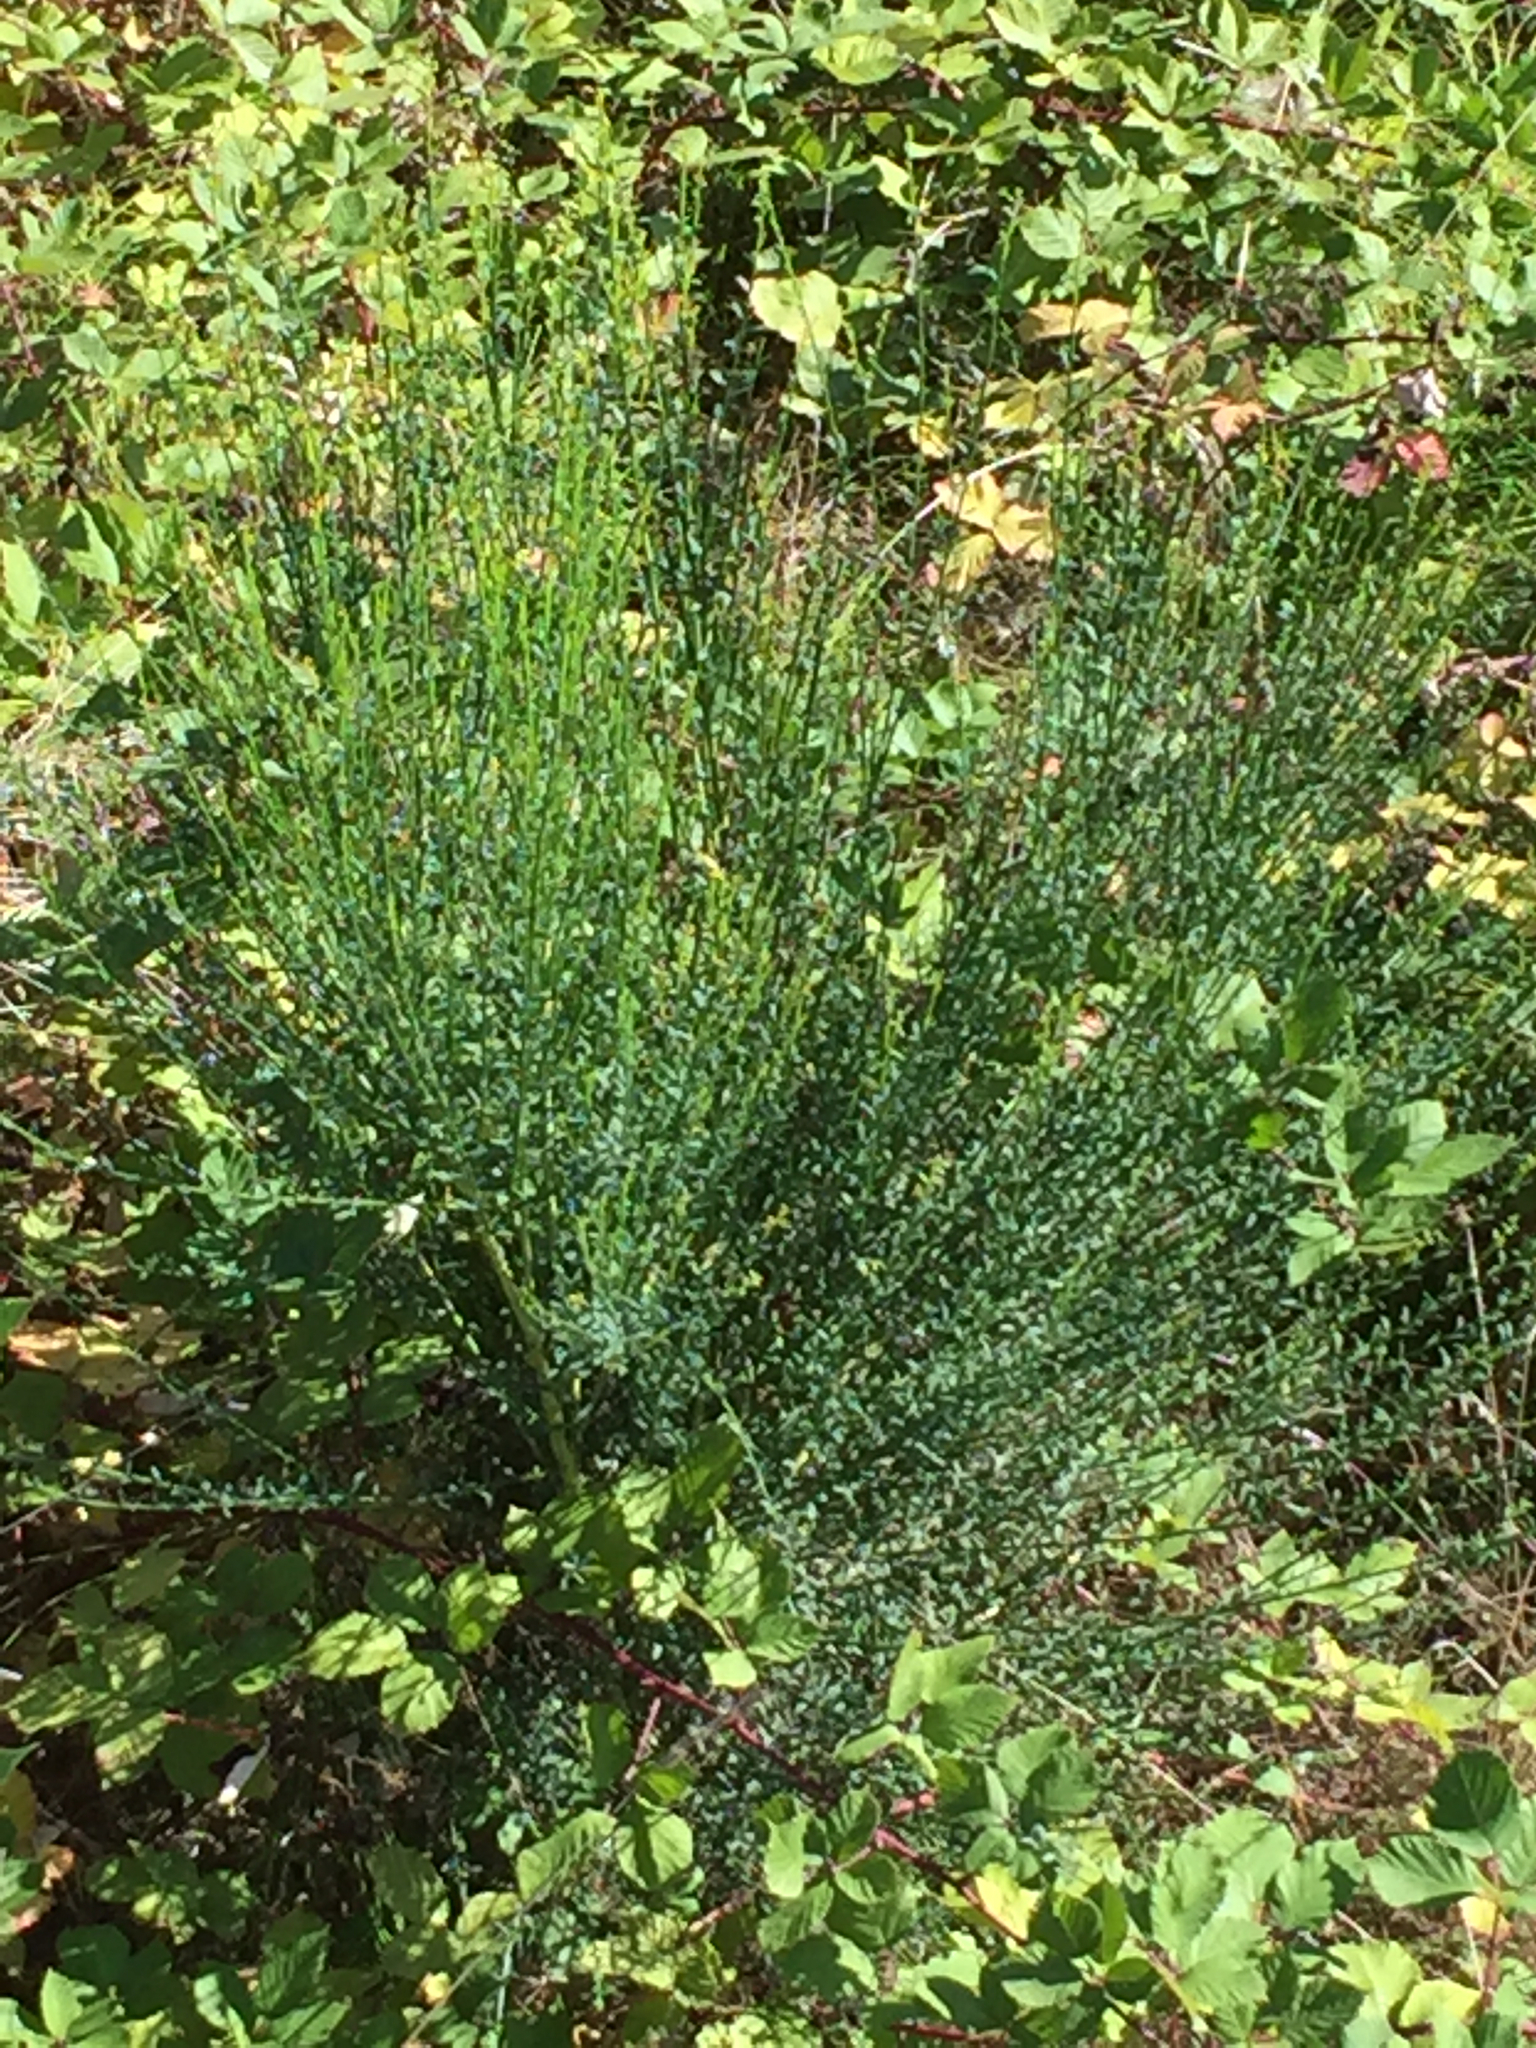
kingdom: Plantae
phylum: Tracheophyta
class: Magnoliopsida
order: Fabales
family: Fabaceae
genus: Cytisus
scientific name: Cytisus scoparius
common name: Scotch broom
